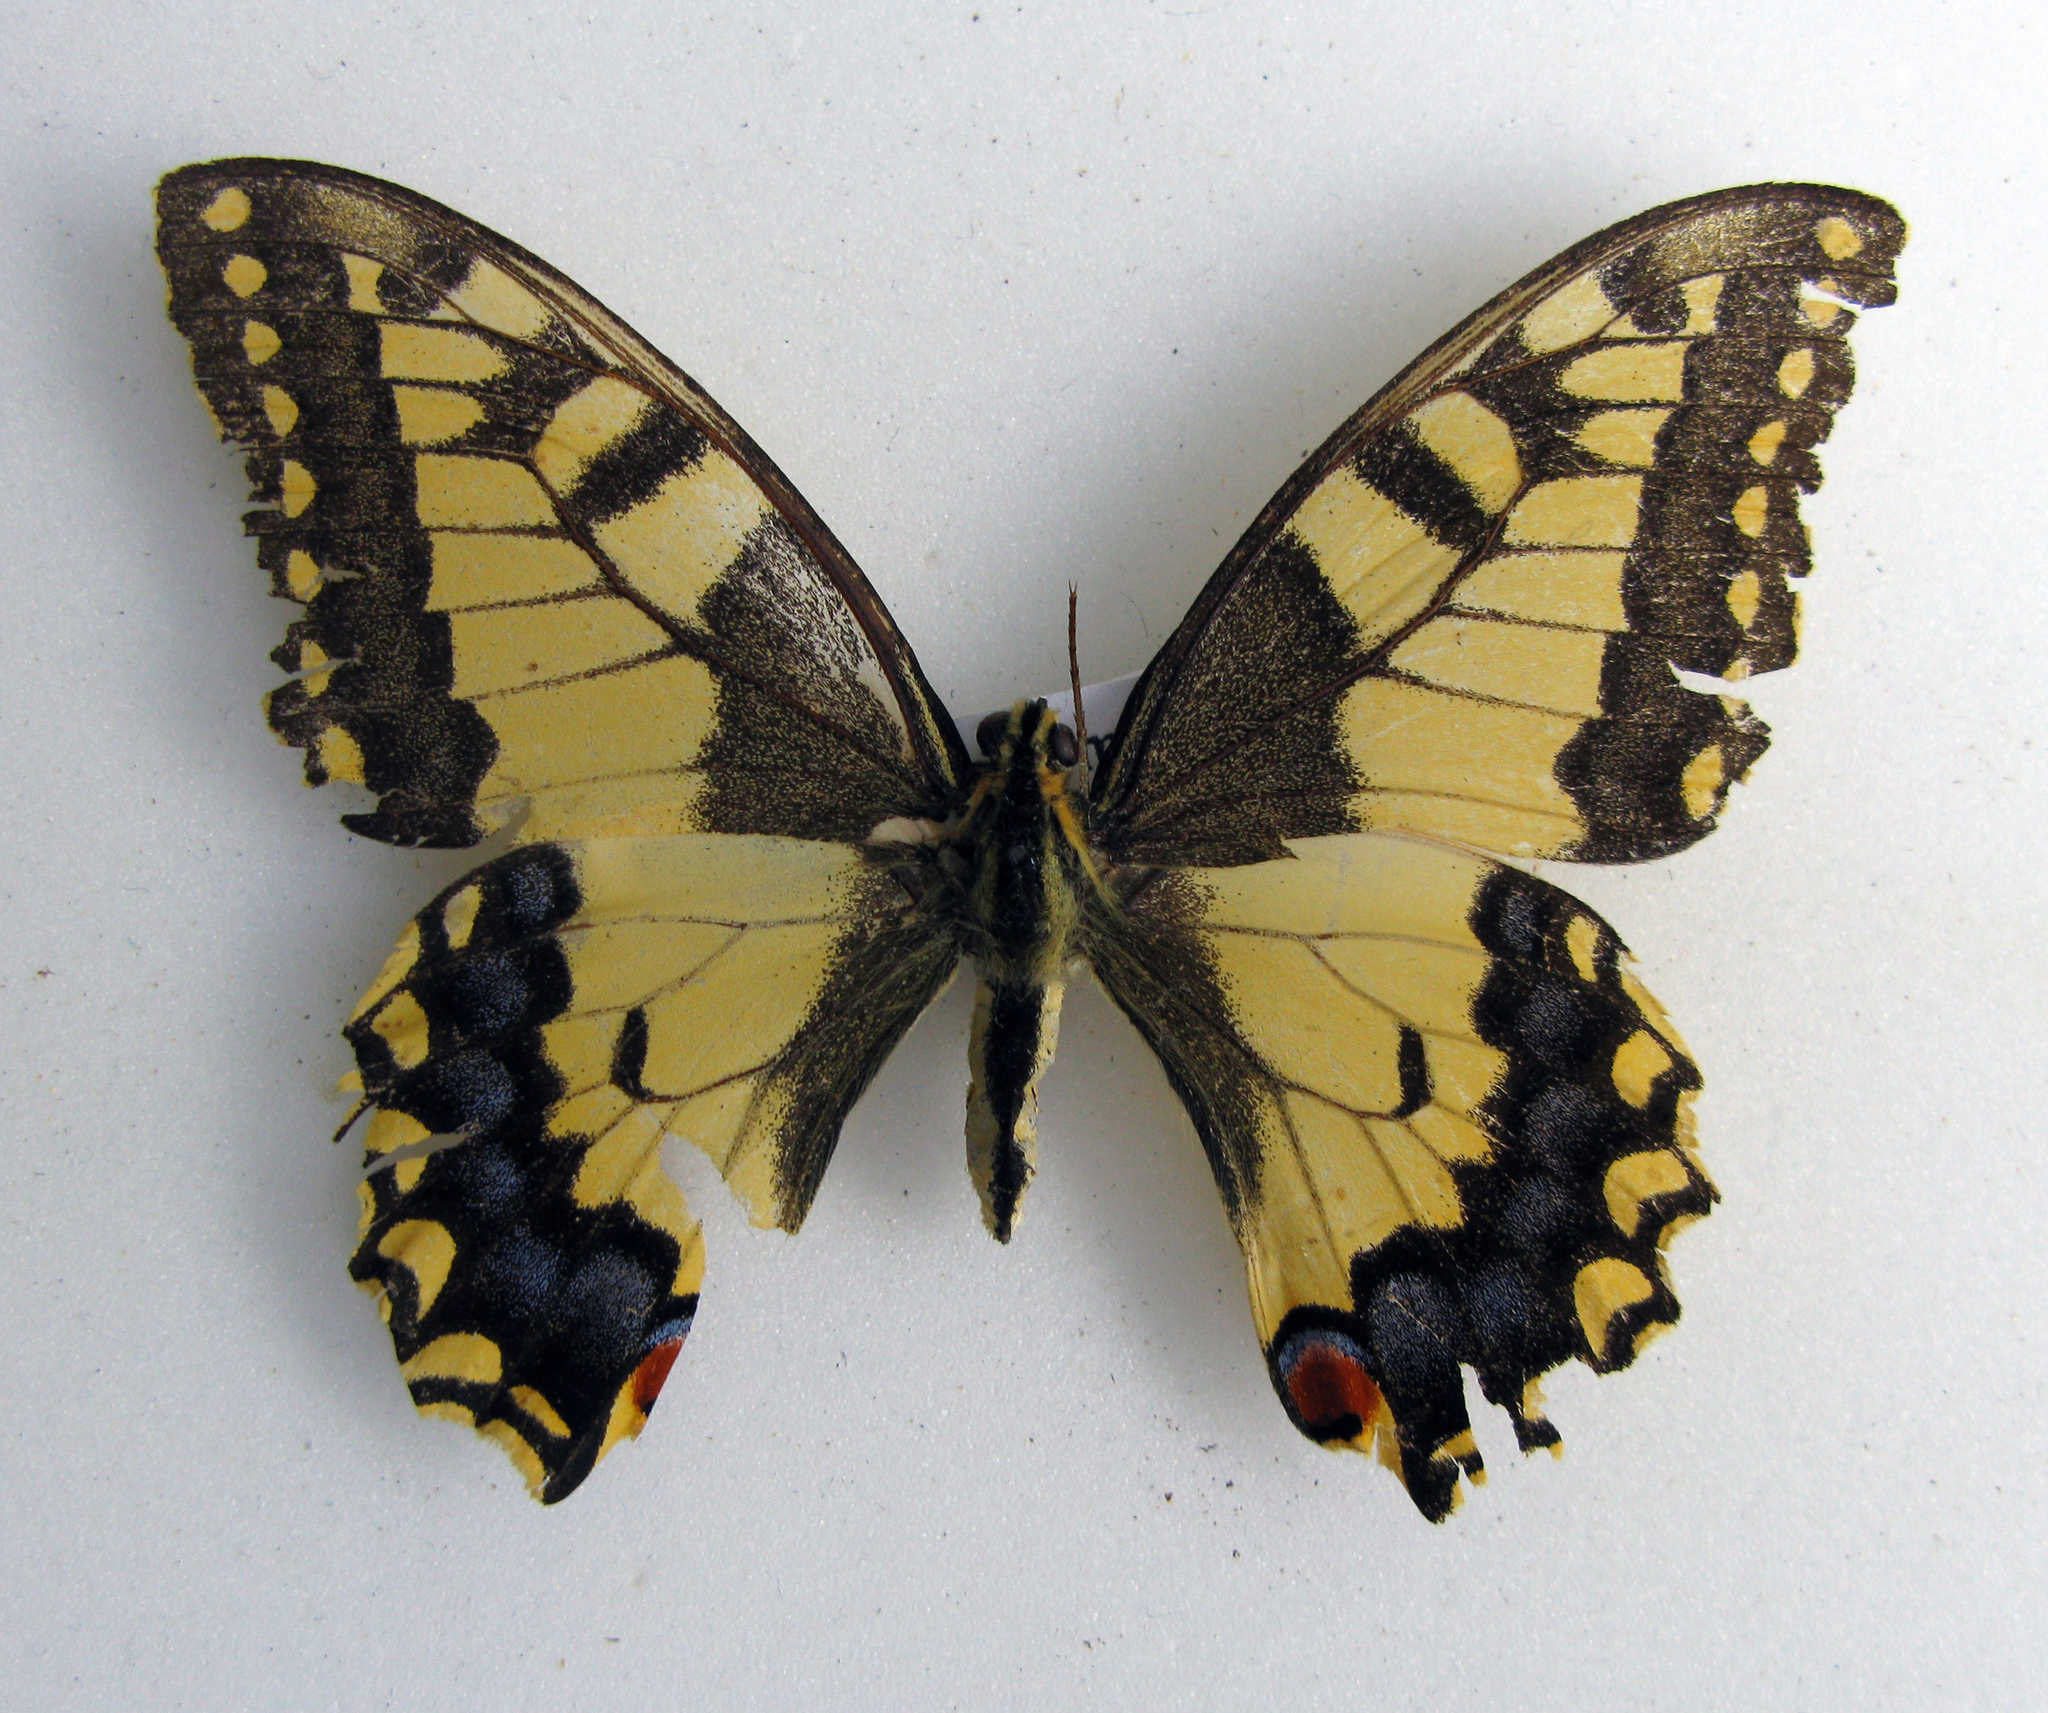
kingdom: Animalia
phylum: Arthropoda
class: Insecta
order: Lepidoptera
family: Papilionidae
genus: Papilio
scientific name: Papilio machaon
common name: Swallowtail
